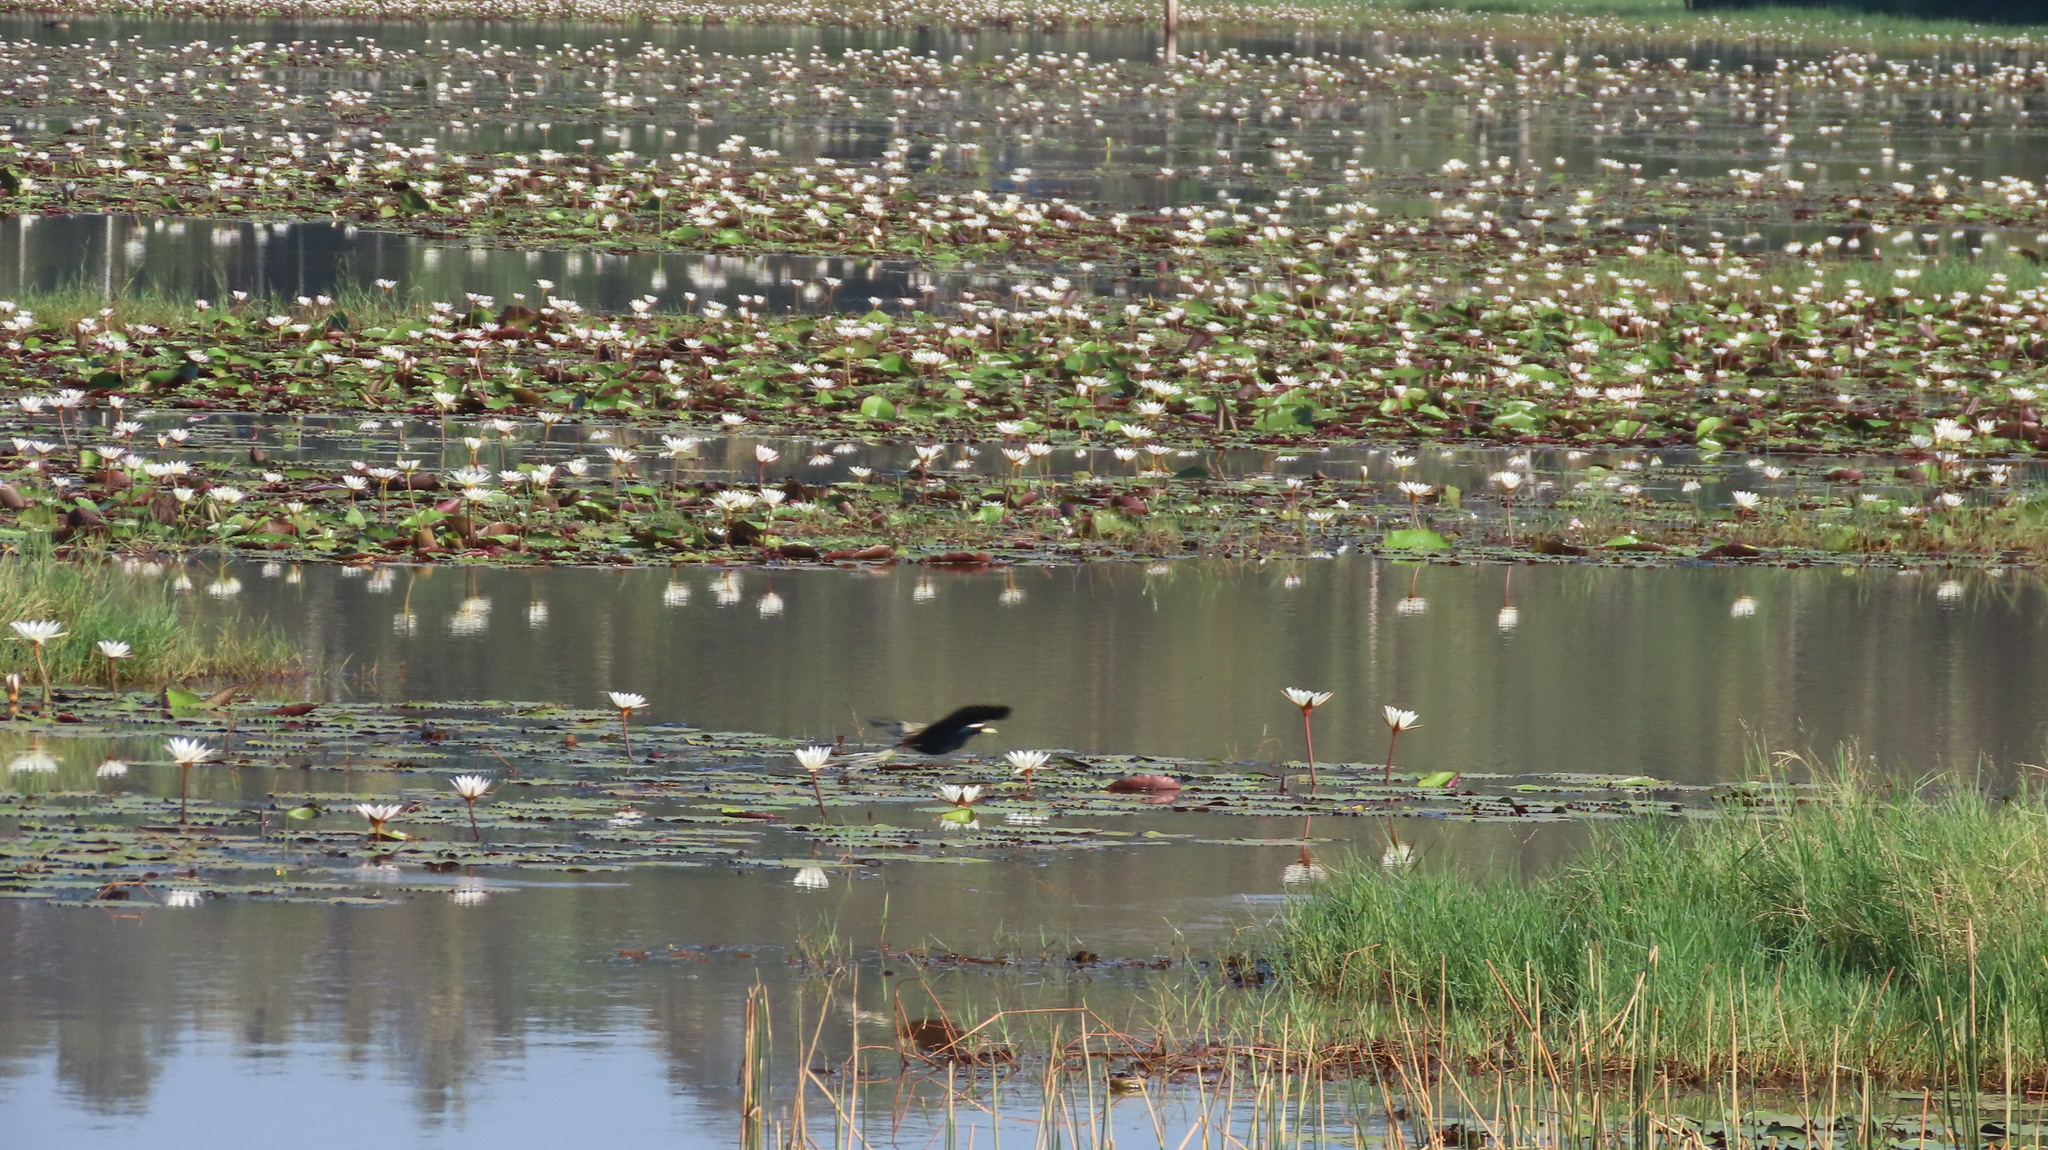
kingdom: Animalia
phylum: Chordata
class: Aves
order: Charadriiformes
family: Jacanidae
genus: Metopidius
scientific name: Metopidius indicus
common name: Bronze-winged jacana
